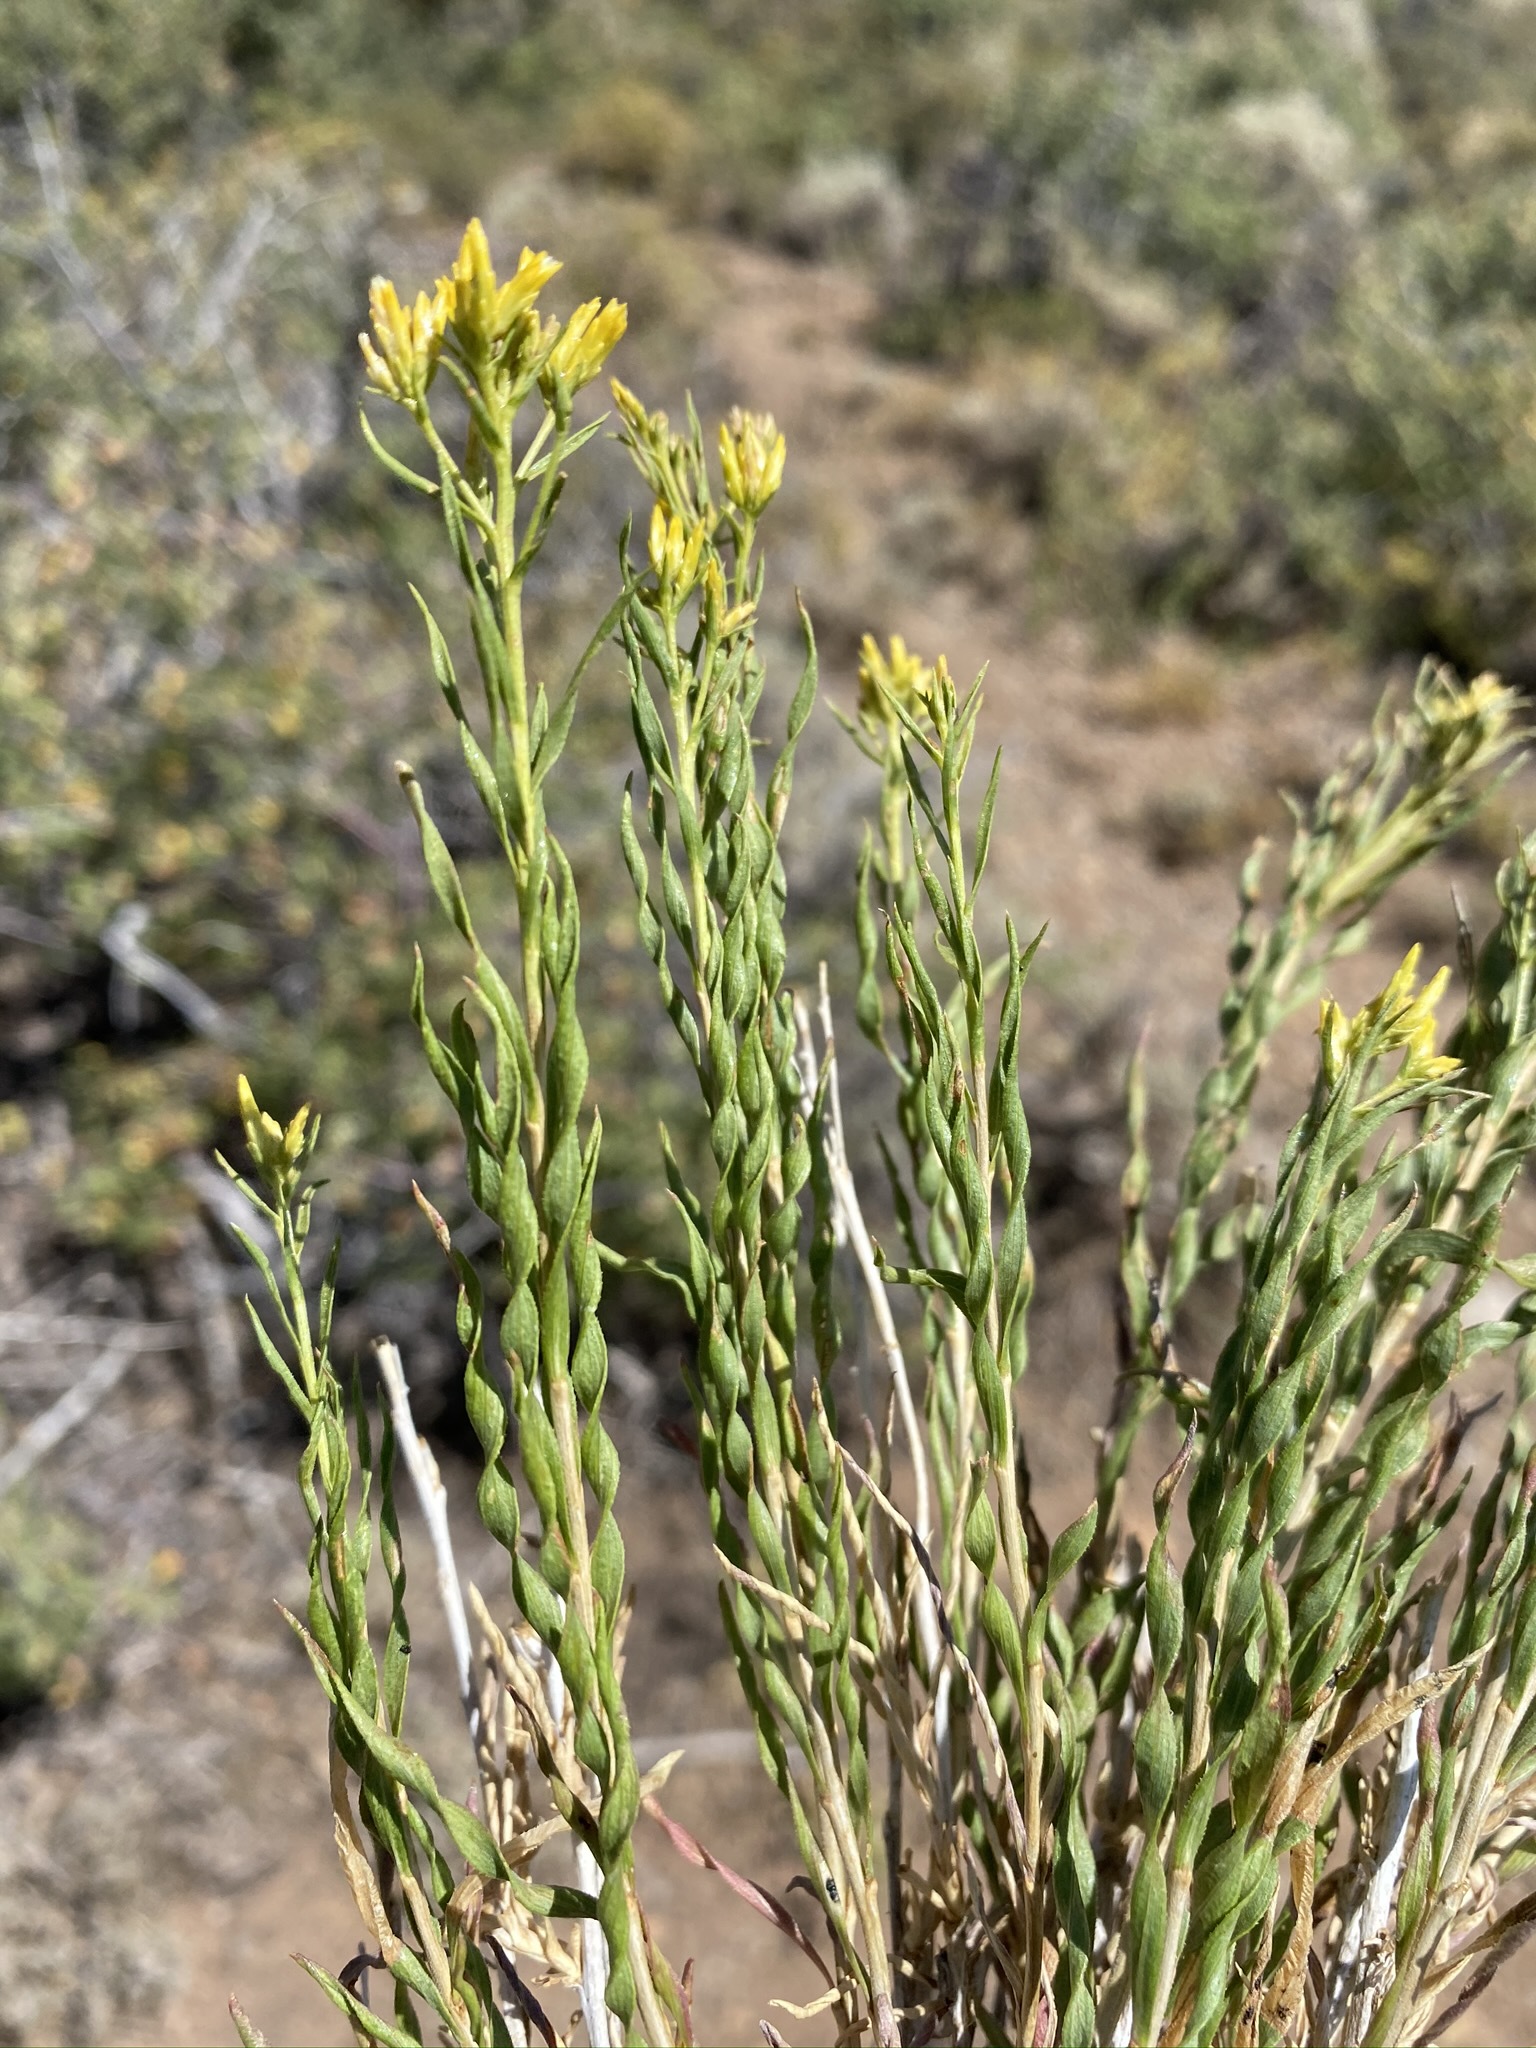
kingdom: Plantae
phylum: Tracheophyta
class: Magnoliopsida
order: Asterales
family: Asteraceae
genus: Chrysothamnus
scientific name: Chrysothamnus viscidiflorus
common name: Yellow rabbitbrush
